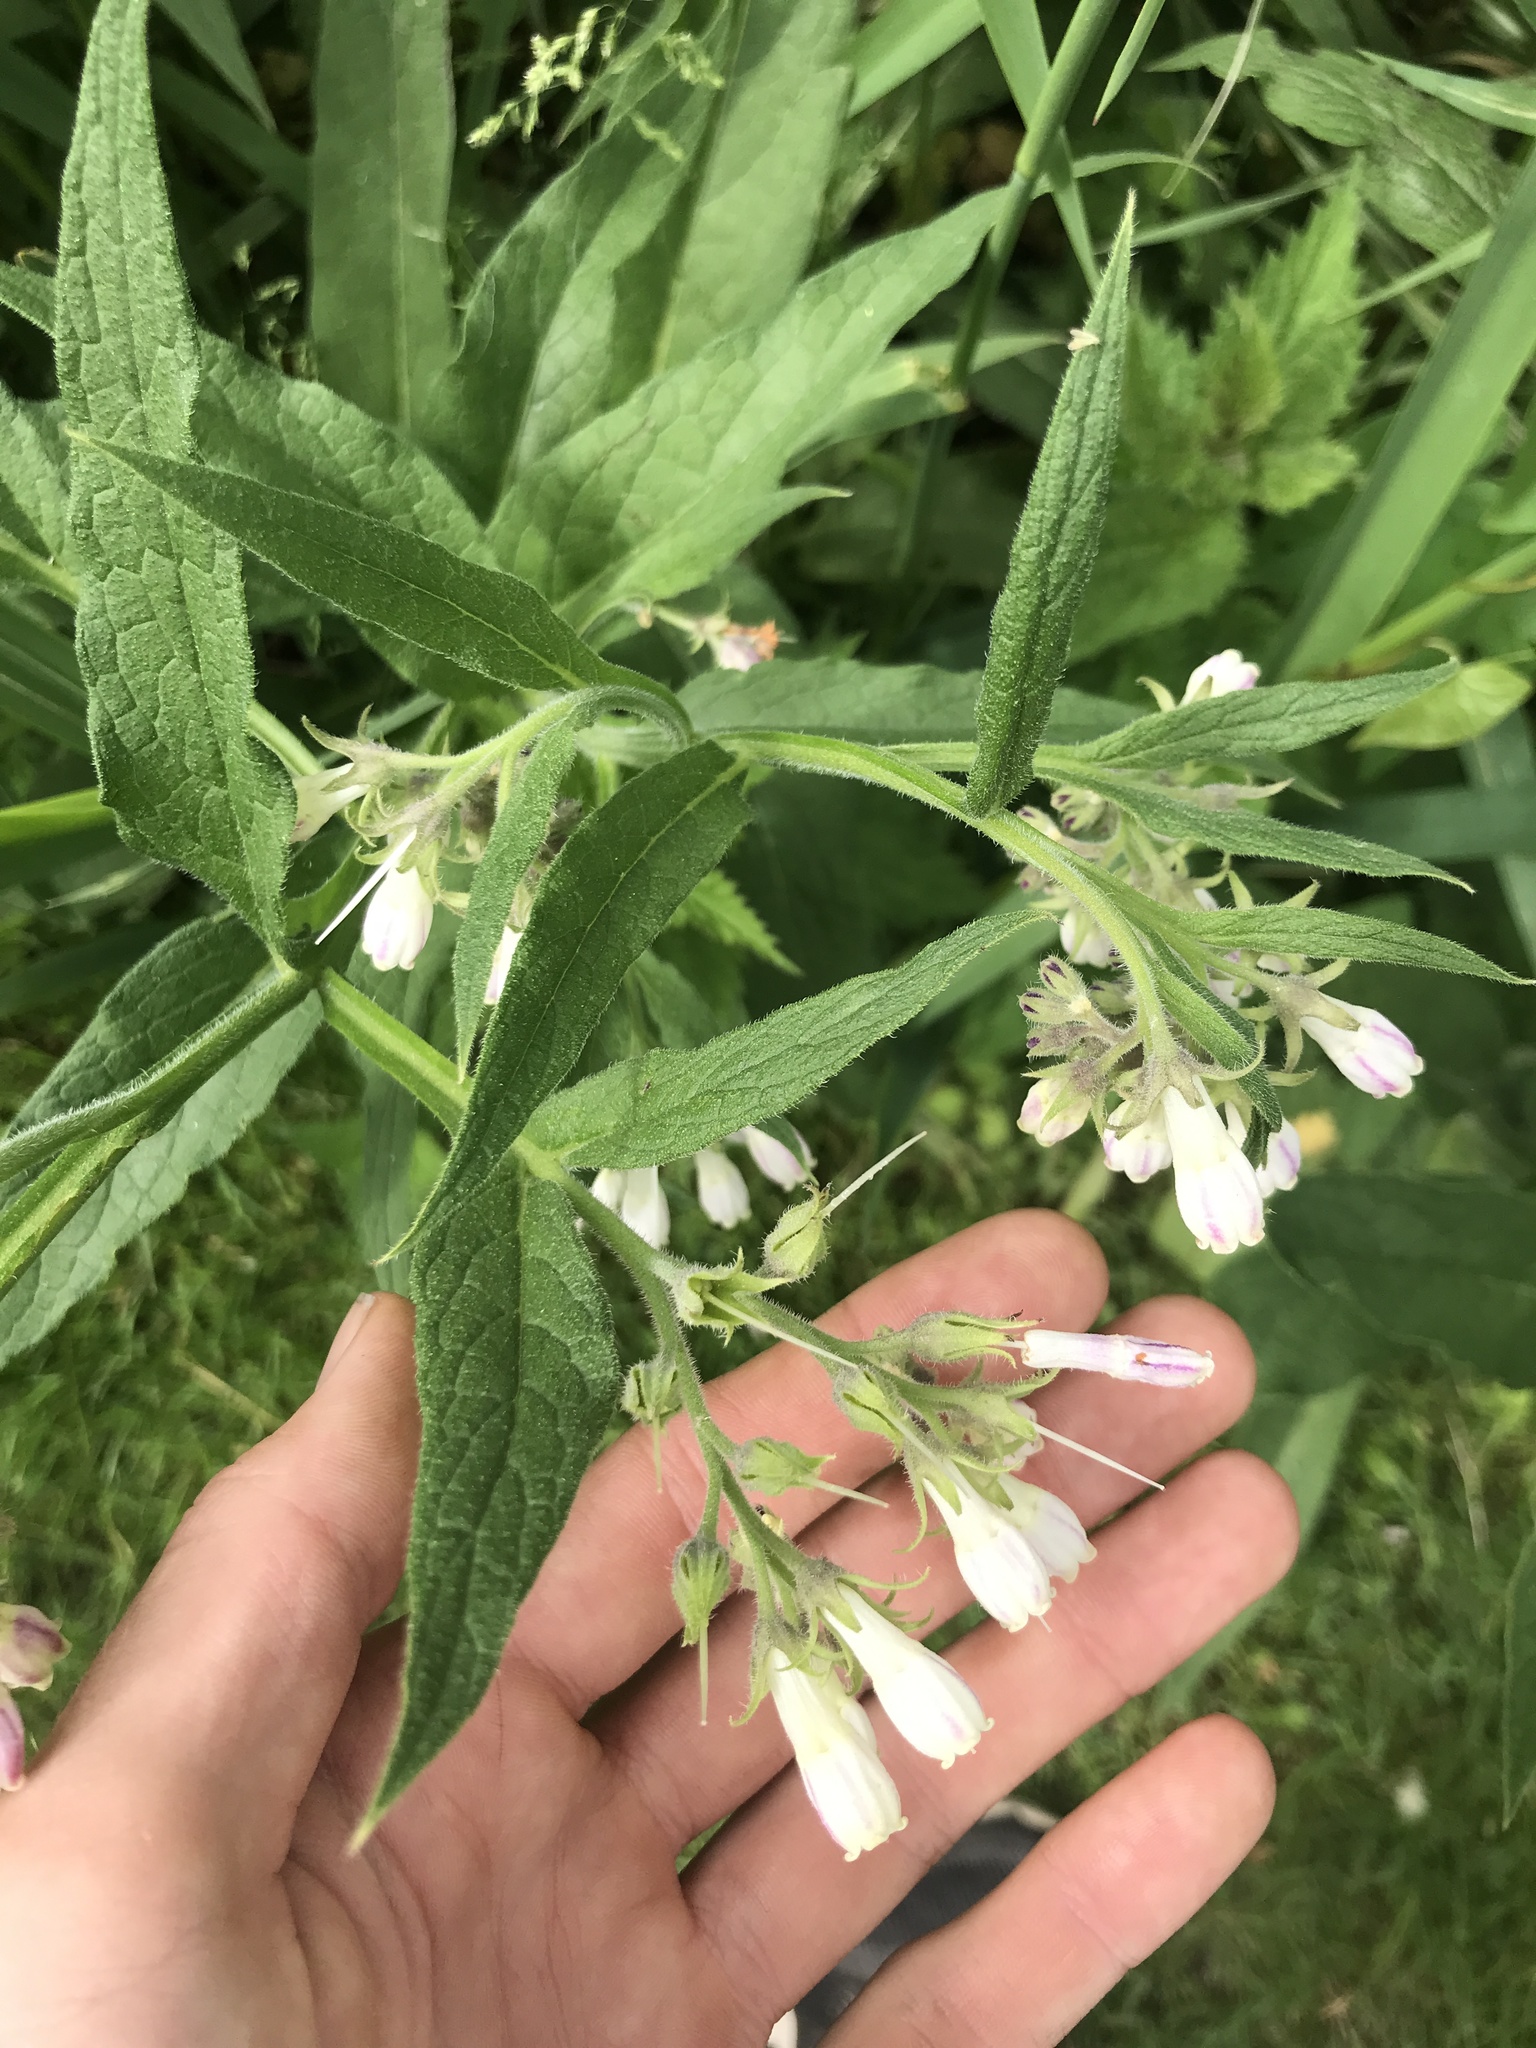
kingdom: Plantae
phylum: Tracheophyta
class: Magnoliopsida
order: Boraginales
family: Boraginaceae
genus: Symphytum
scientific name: Symphytum officinale
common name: Common comfrey
